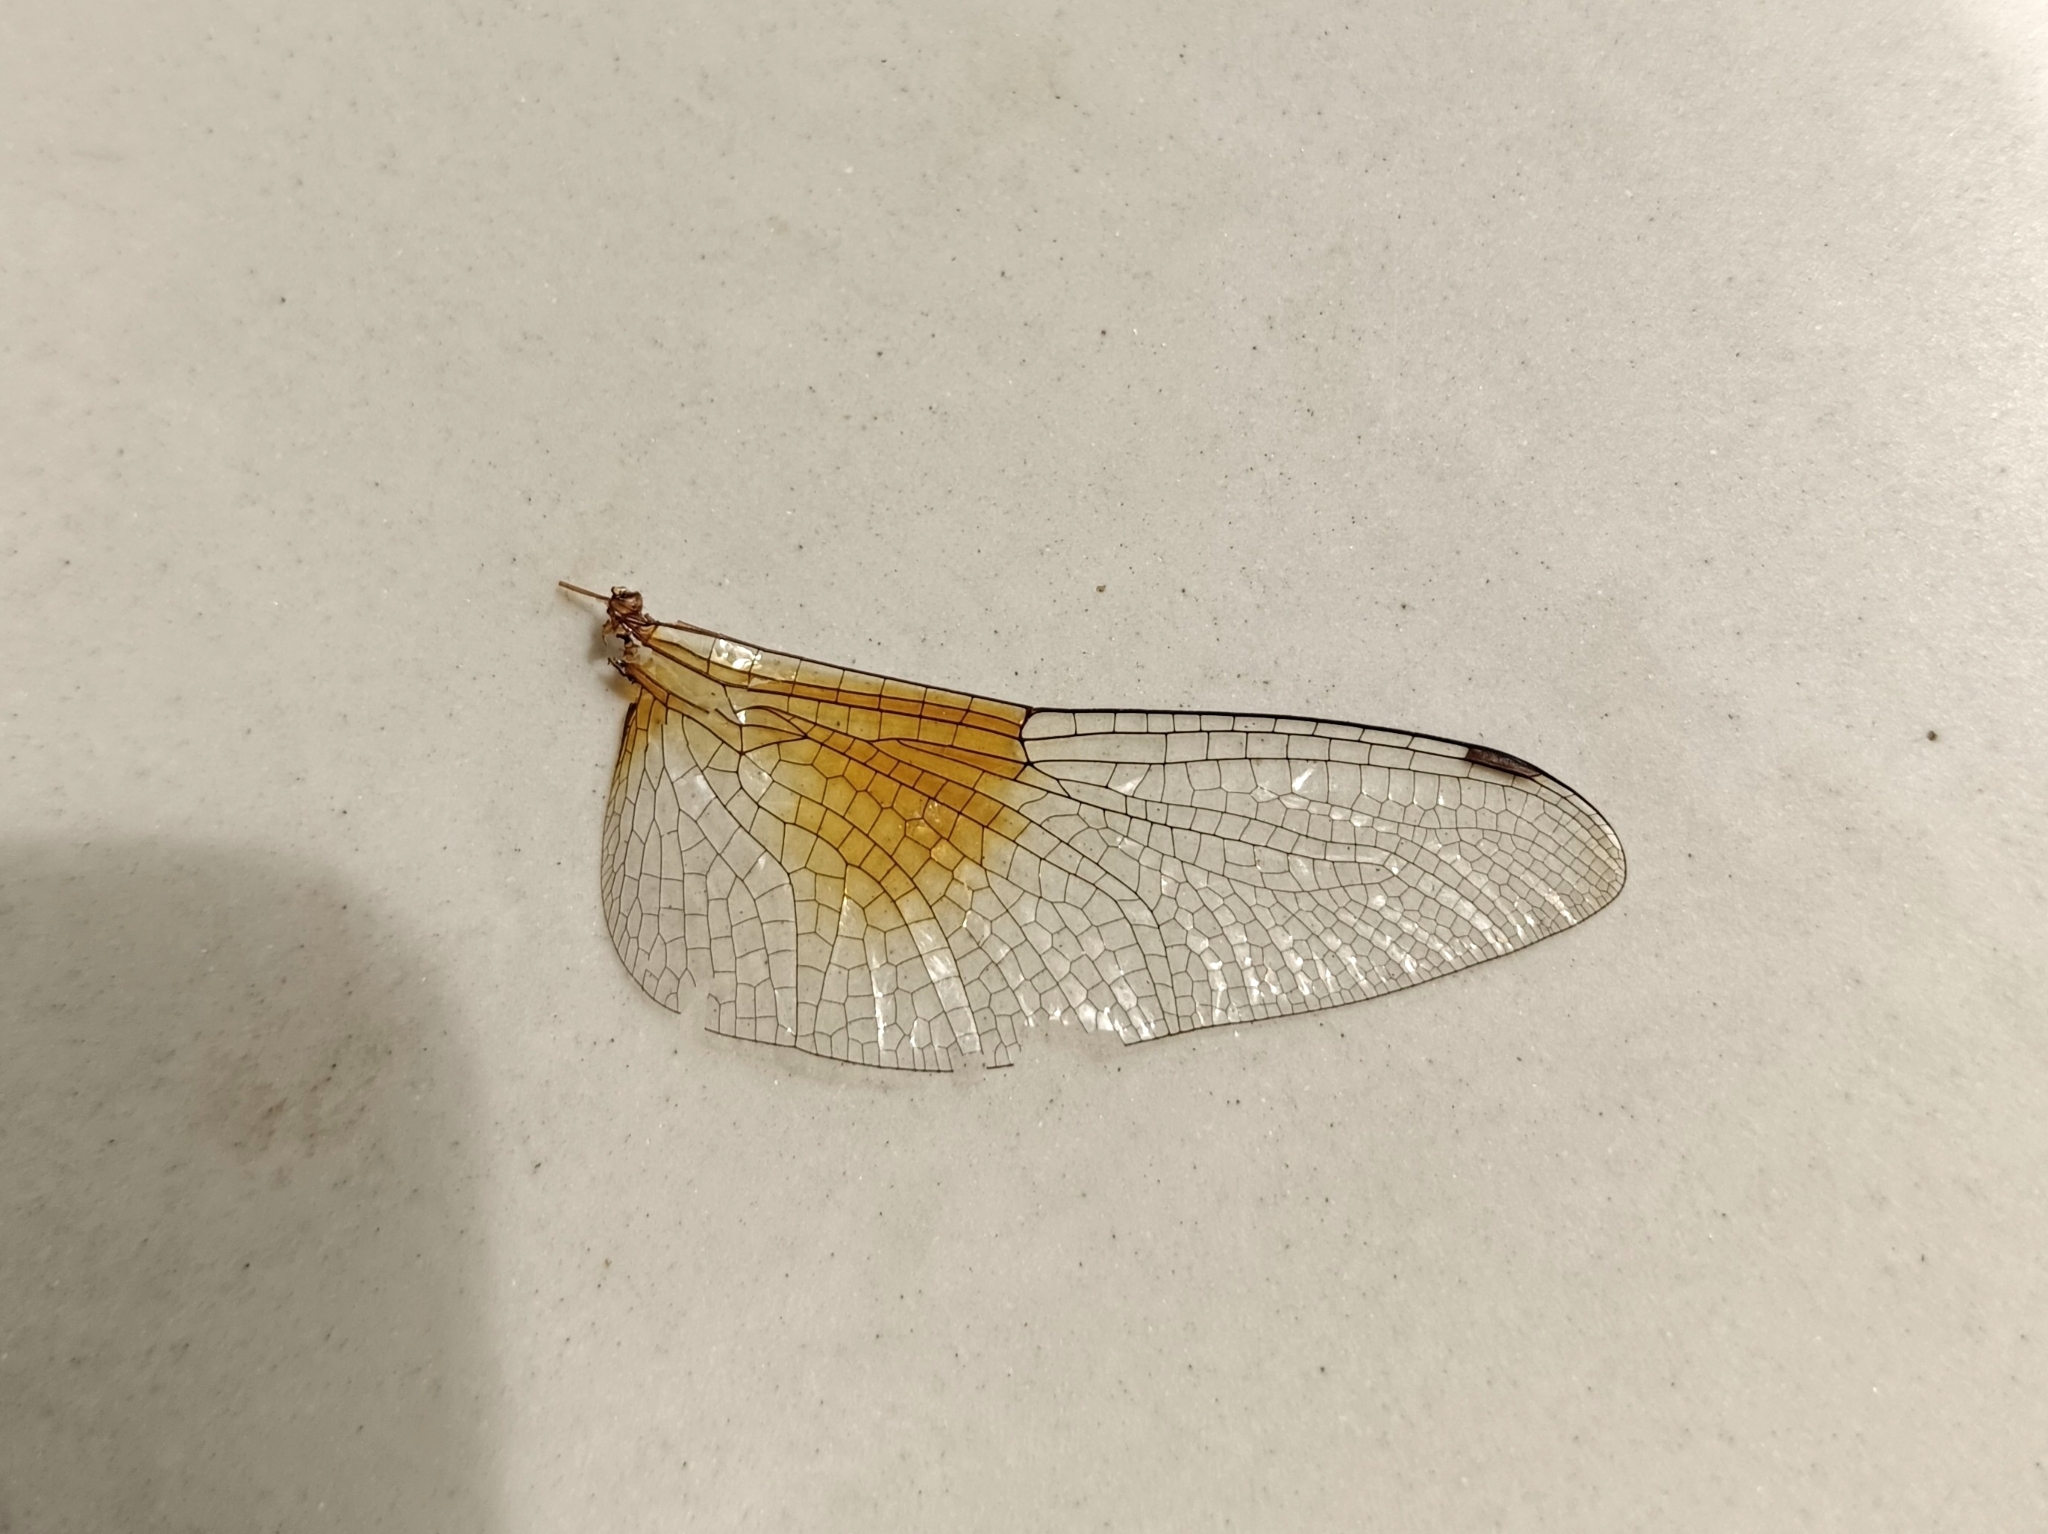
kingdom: Animalia
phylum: Arthropoda
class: Insecta
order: Odonata
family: Libellulidae
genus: Tholymis
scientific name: Tholymis tillarga
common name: Coral-tailed cloud wing
